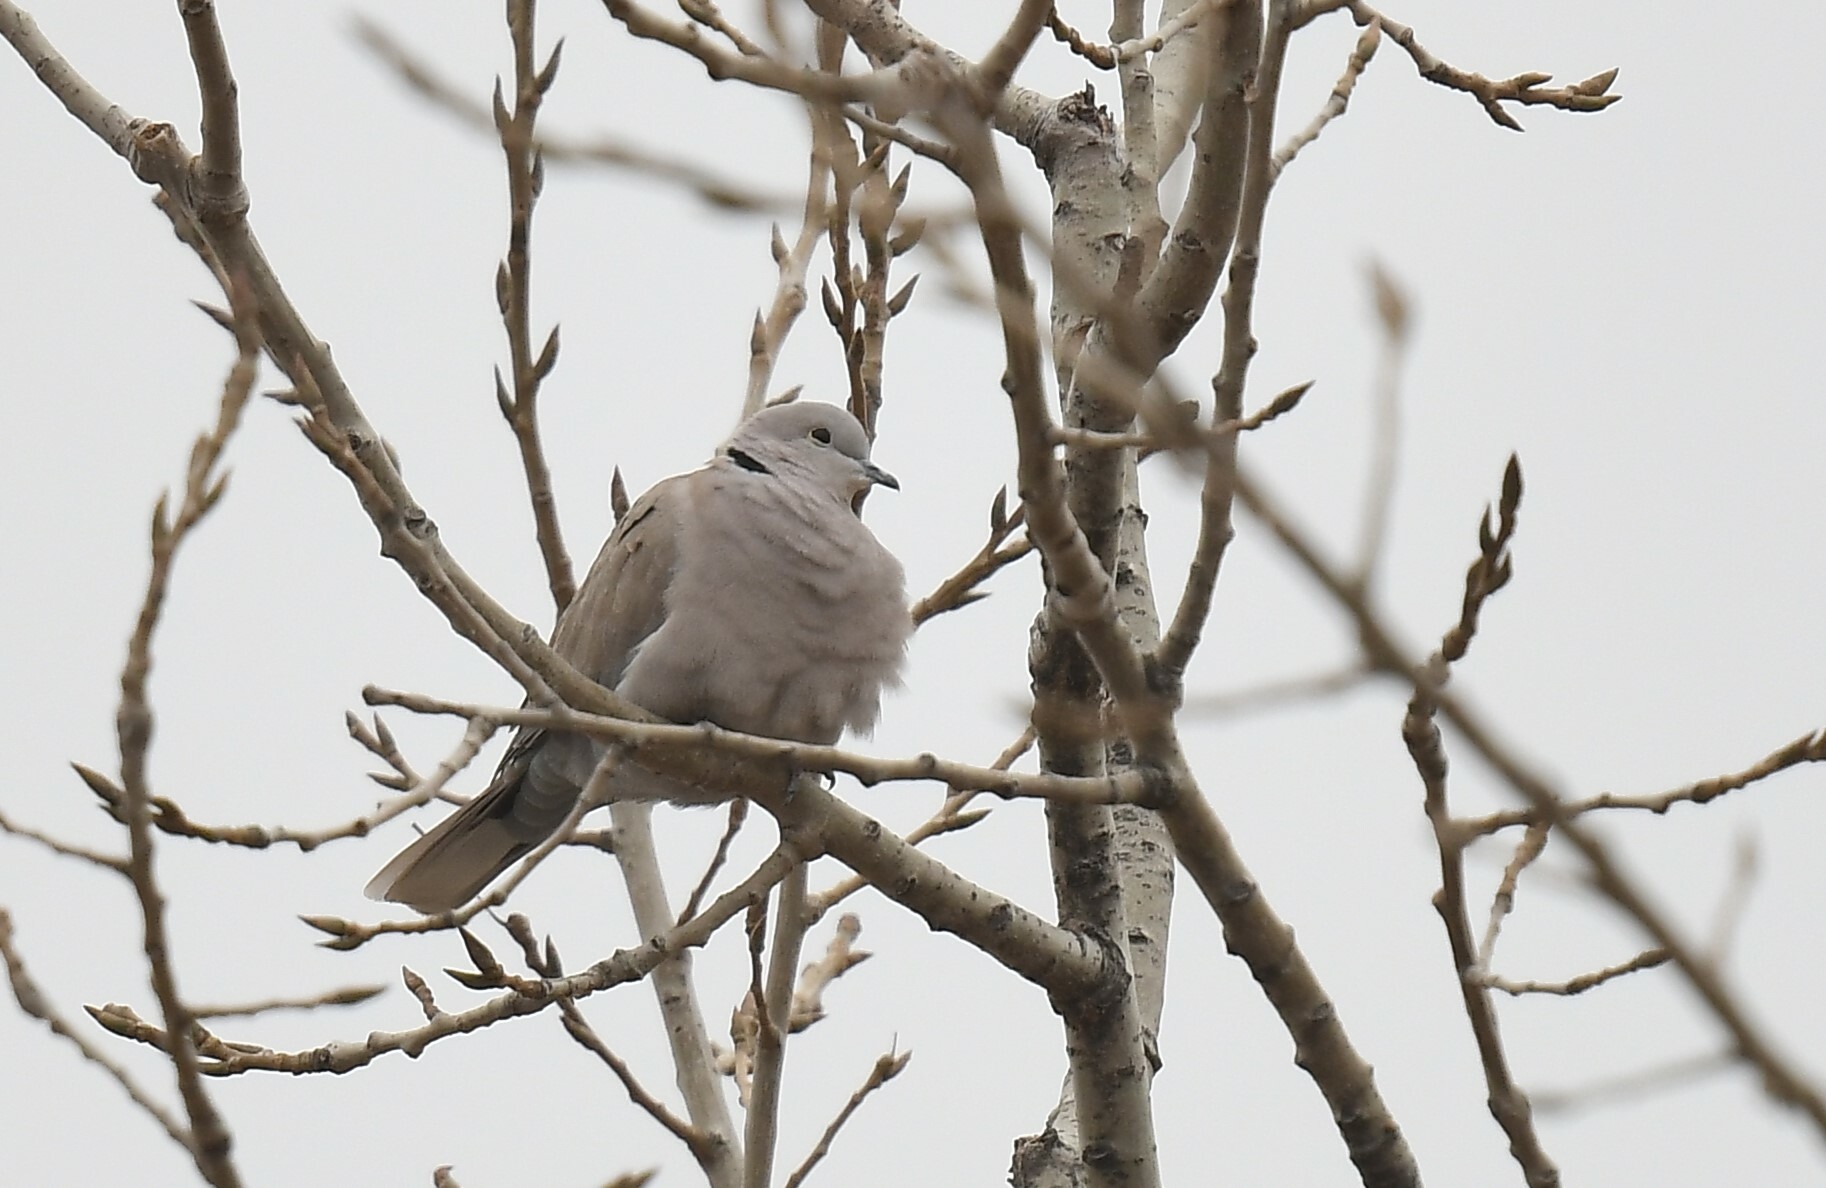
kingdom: Animalia
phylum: Chordata
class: Aves
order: Columbiformes
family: Columbidae
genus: Streptopelia
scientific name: Streptopelia decaocto
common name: Eurasian collared dove
